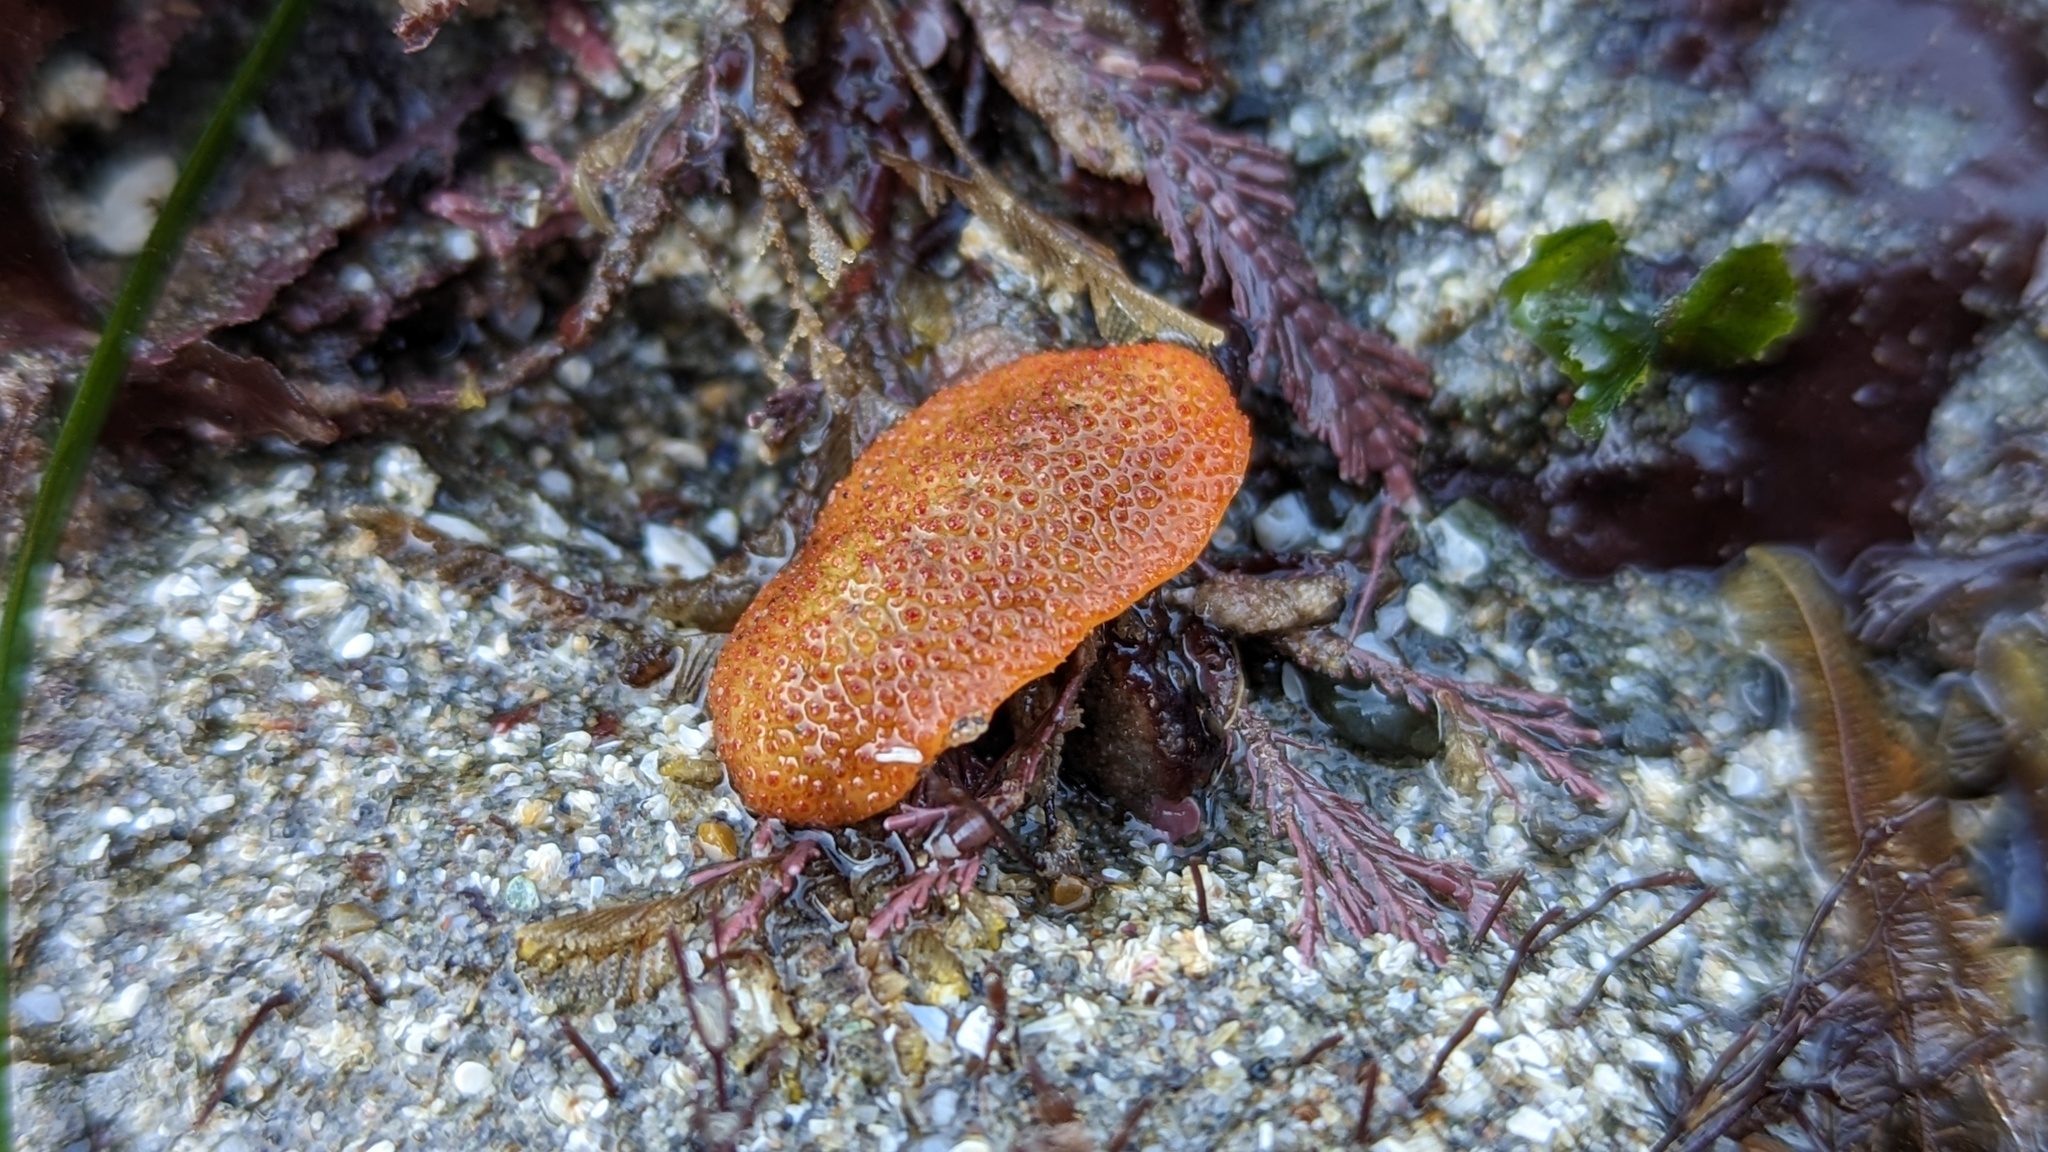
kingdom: Animalia
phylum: Mollusca
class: Polyplacophora
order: Chitonida
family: Acanthochitonidae
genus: Cryptochiton
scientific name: Cryptochiton stelleri
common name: Giant pacific chiton
